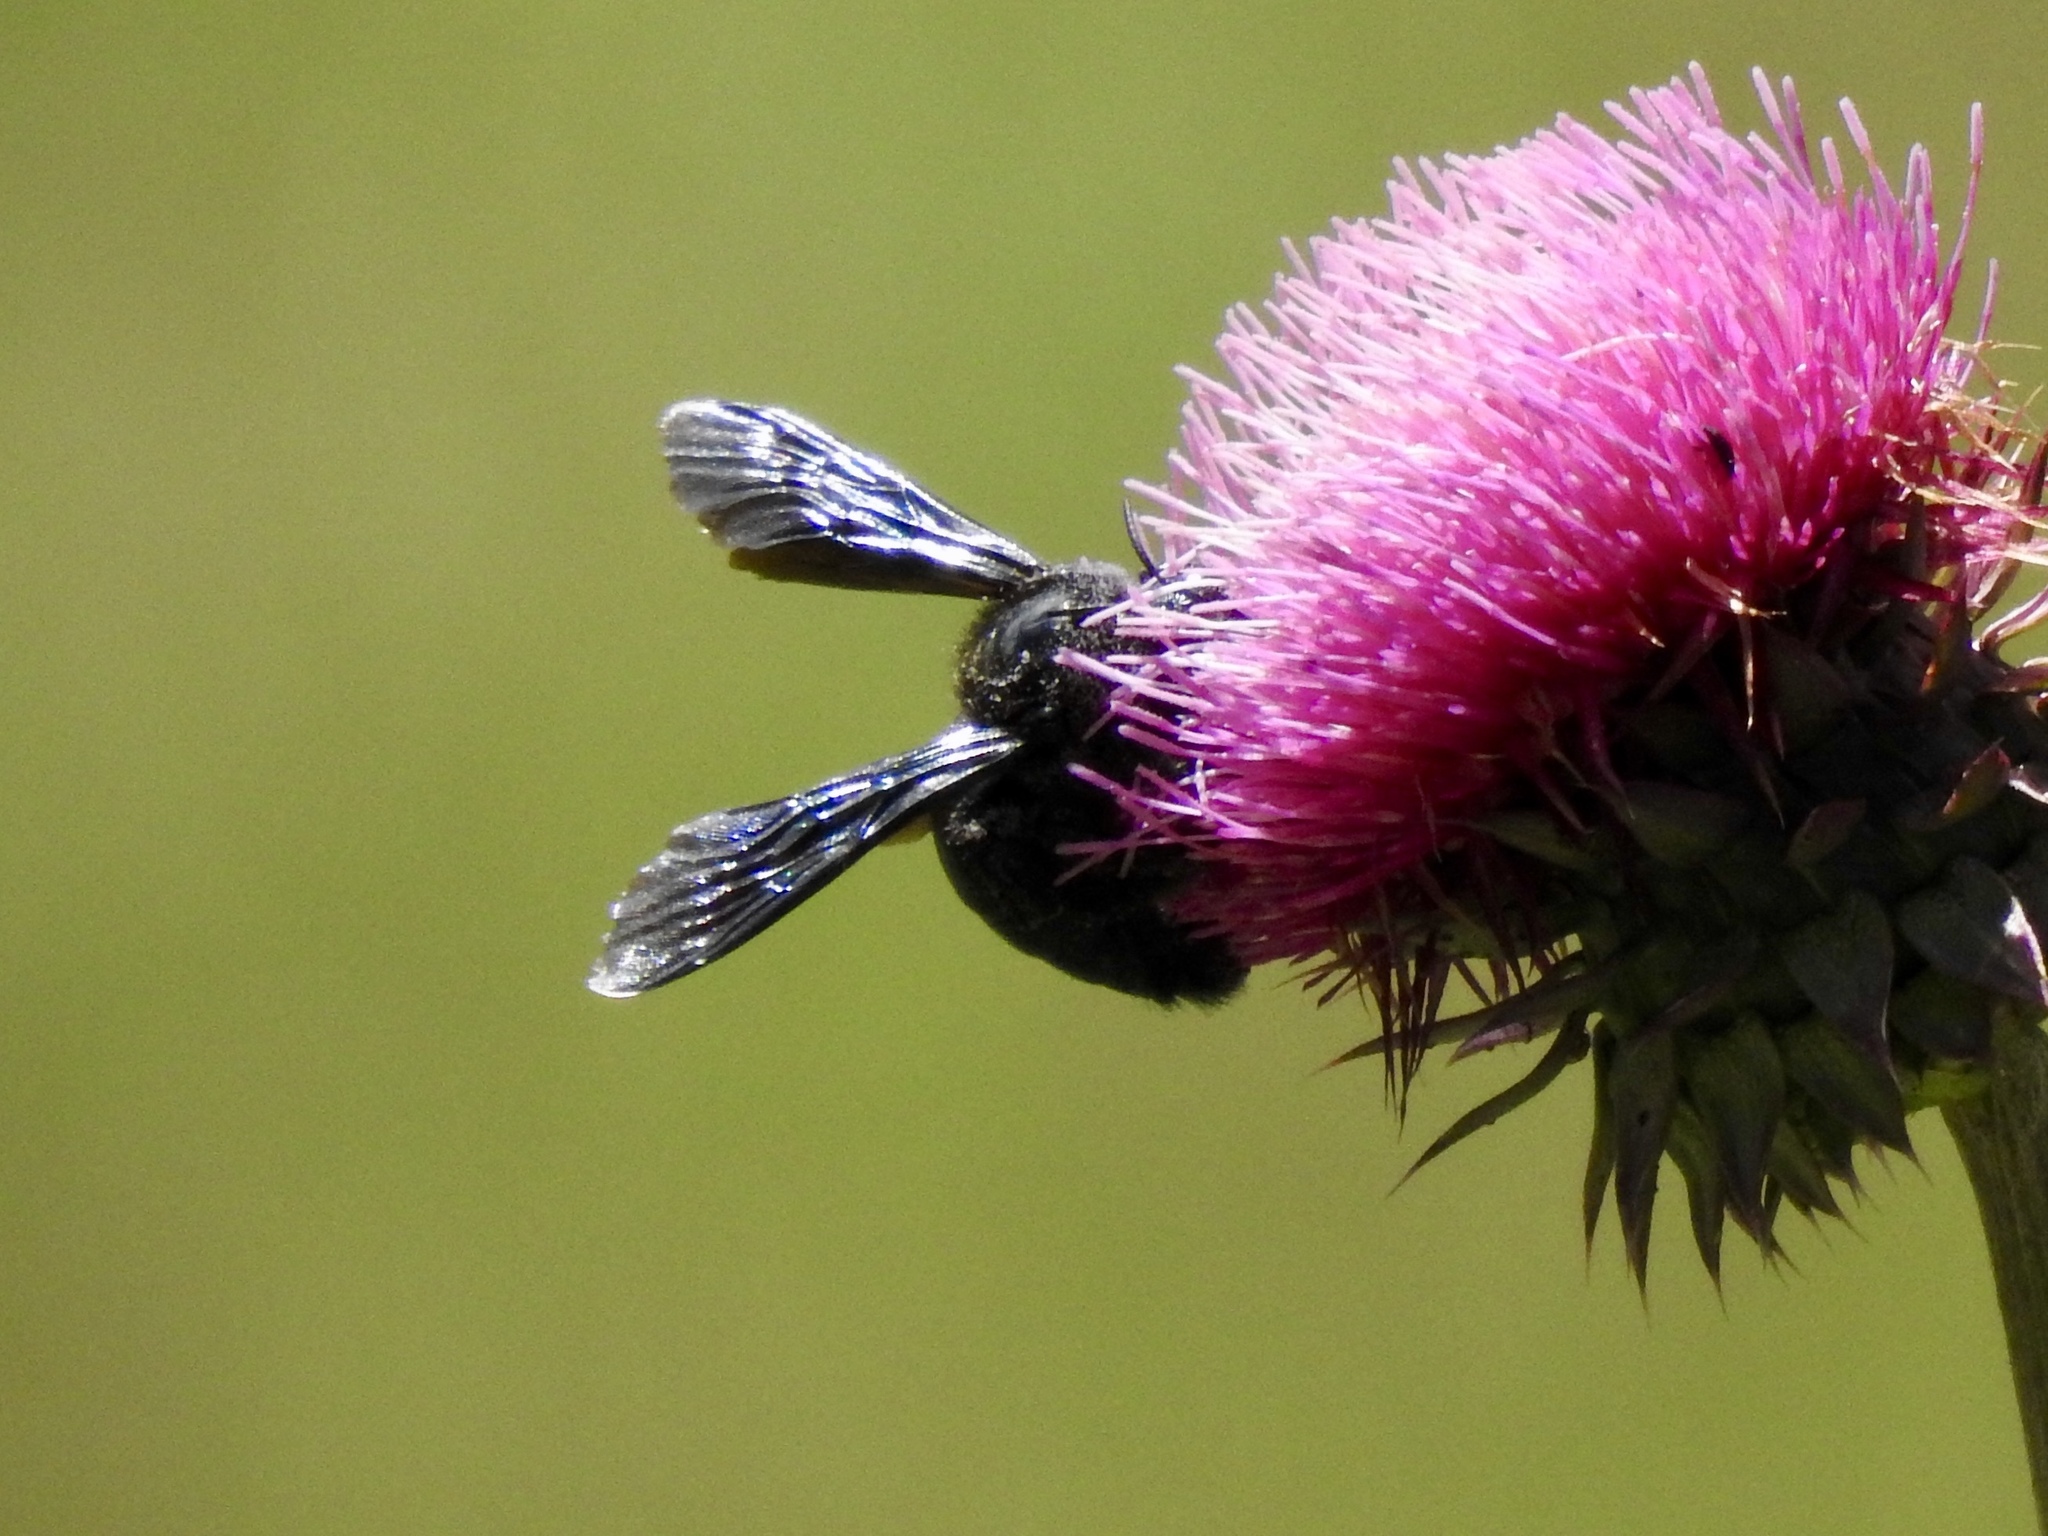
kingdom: Animalia
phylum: Arthropoda
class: Insecta
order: Hymenoptera
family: Apidae
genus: Xylocopa
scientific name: Xylocopa californica
